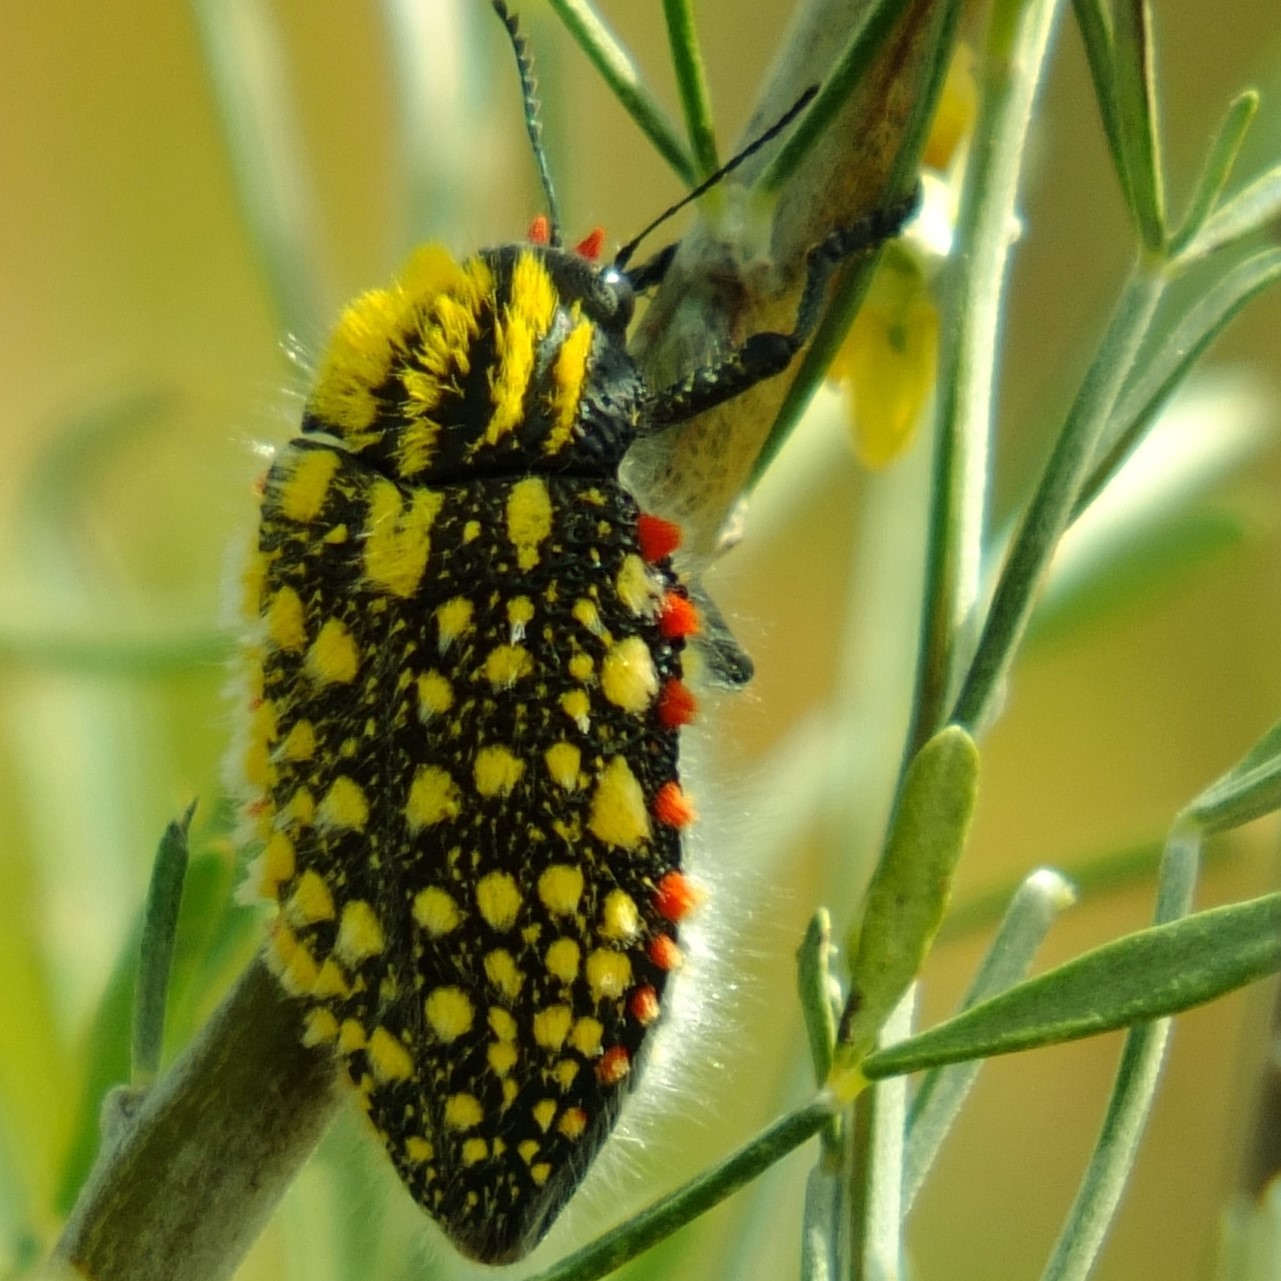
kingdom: Animalia
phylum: Arthropoda
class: Insecta
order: Coleoptera
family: Buprestidae
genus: Julodis
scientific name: Julodis sulcicollis
